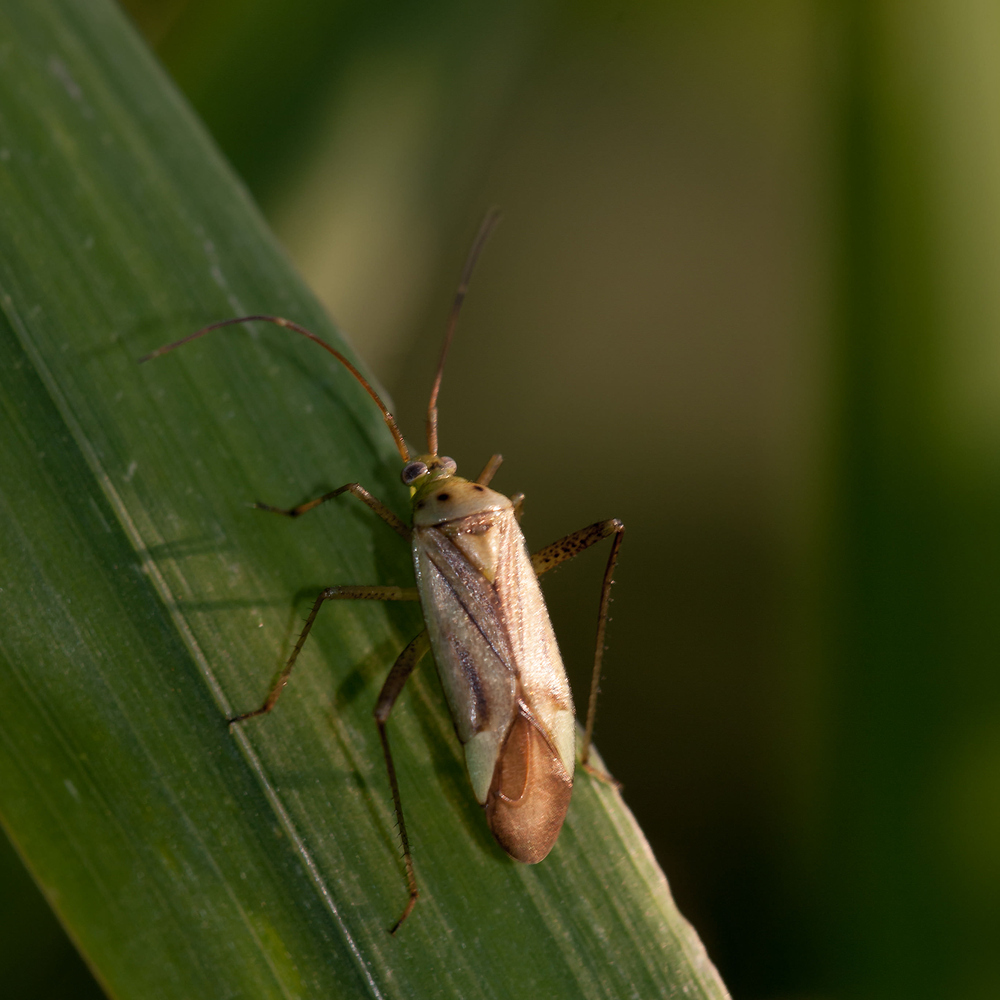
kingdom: Animalia
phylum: Arthropoda
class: Insecta
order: Hemiptera
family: Miridae
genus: Adelphocoris
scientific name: Adelphocoris quadripunctatus
